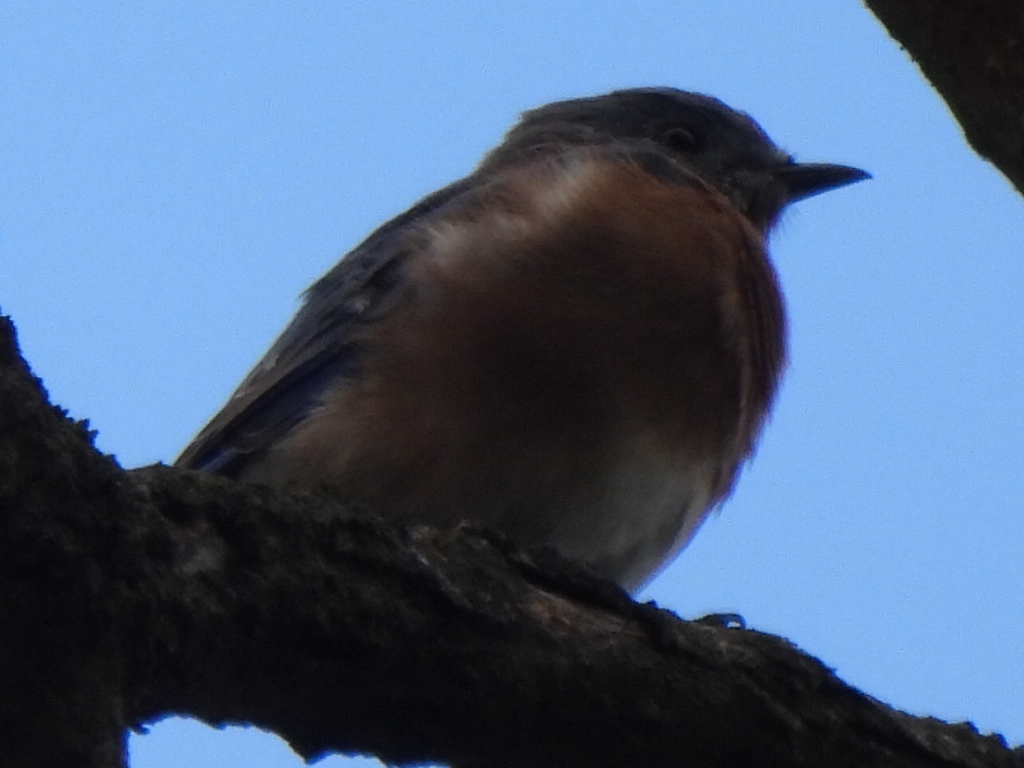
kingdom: Animalia
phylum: Chordata
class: Aves
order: Passeriformes
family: Turdidae
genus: Sialia
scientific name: Sialia sialis
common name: Eastern bluebird
